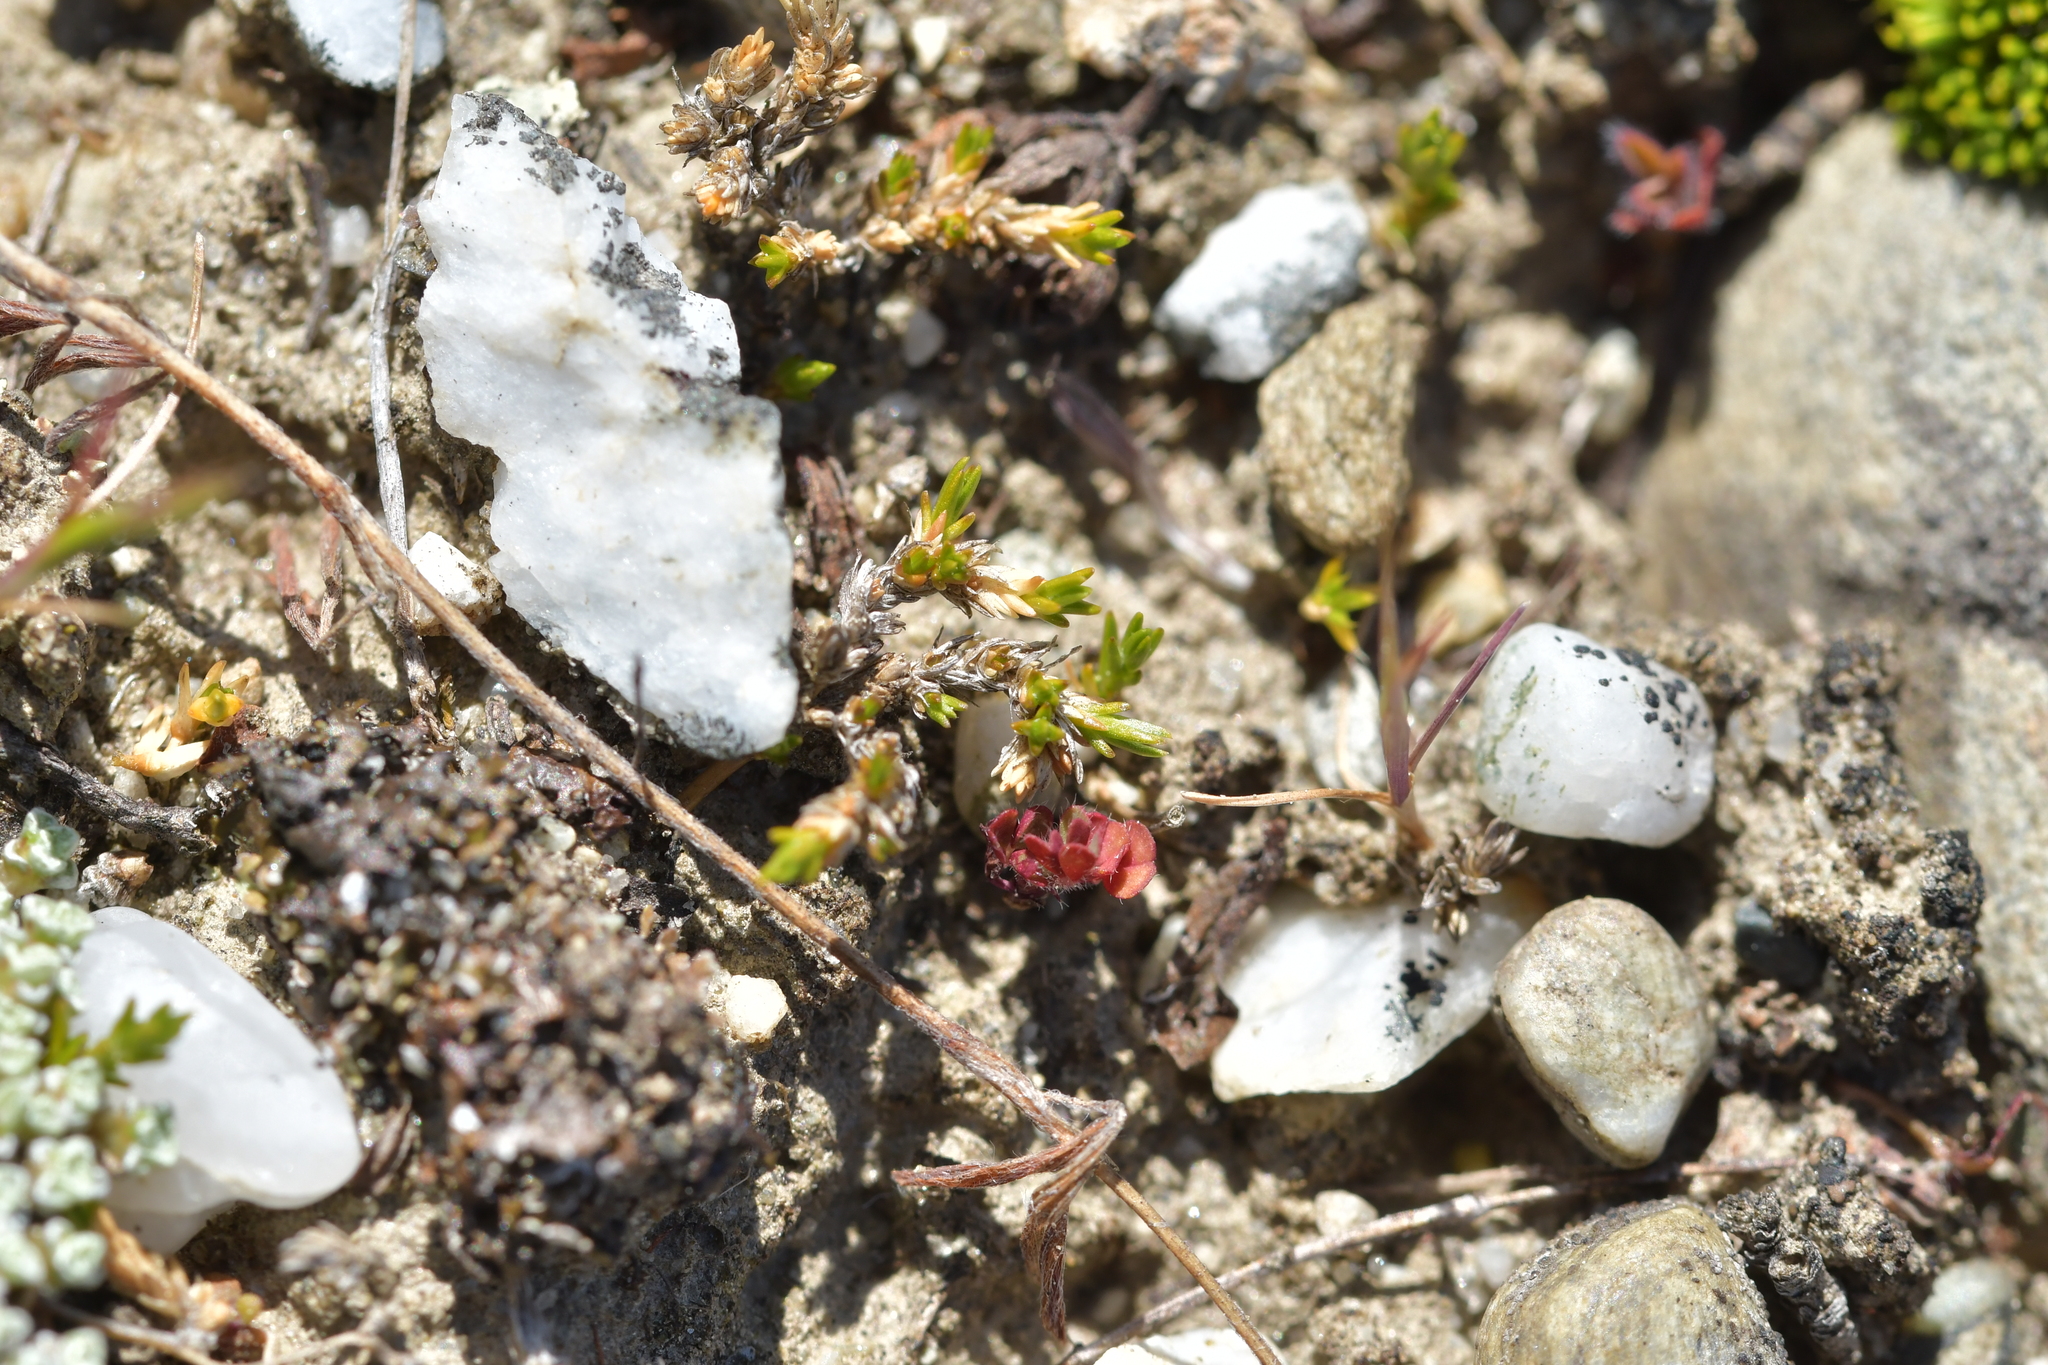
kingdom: Plantae
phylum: Tracheophyta
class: Magnoliopsida
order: Caryophyllales
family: Caryophyllaceae
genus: Stellaria
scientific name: Stellaria gracilenta
